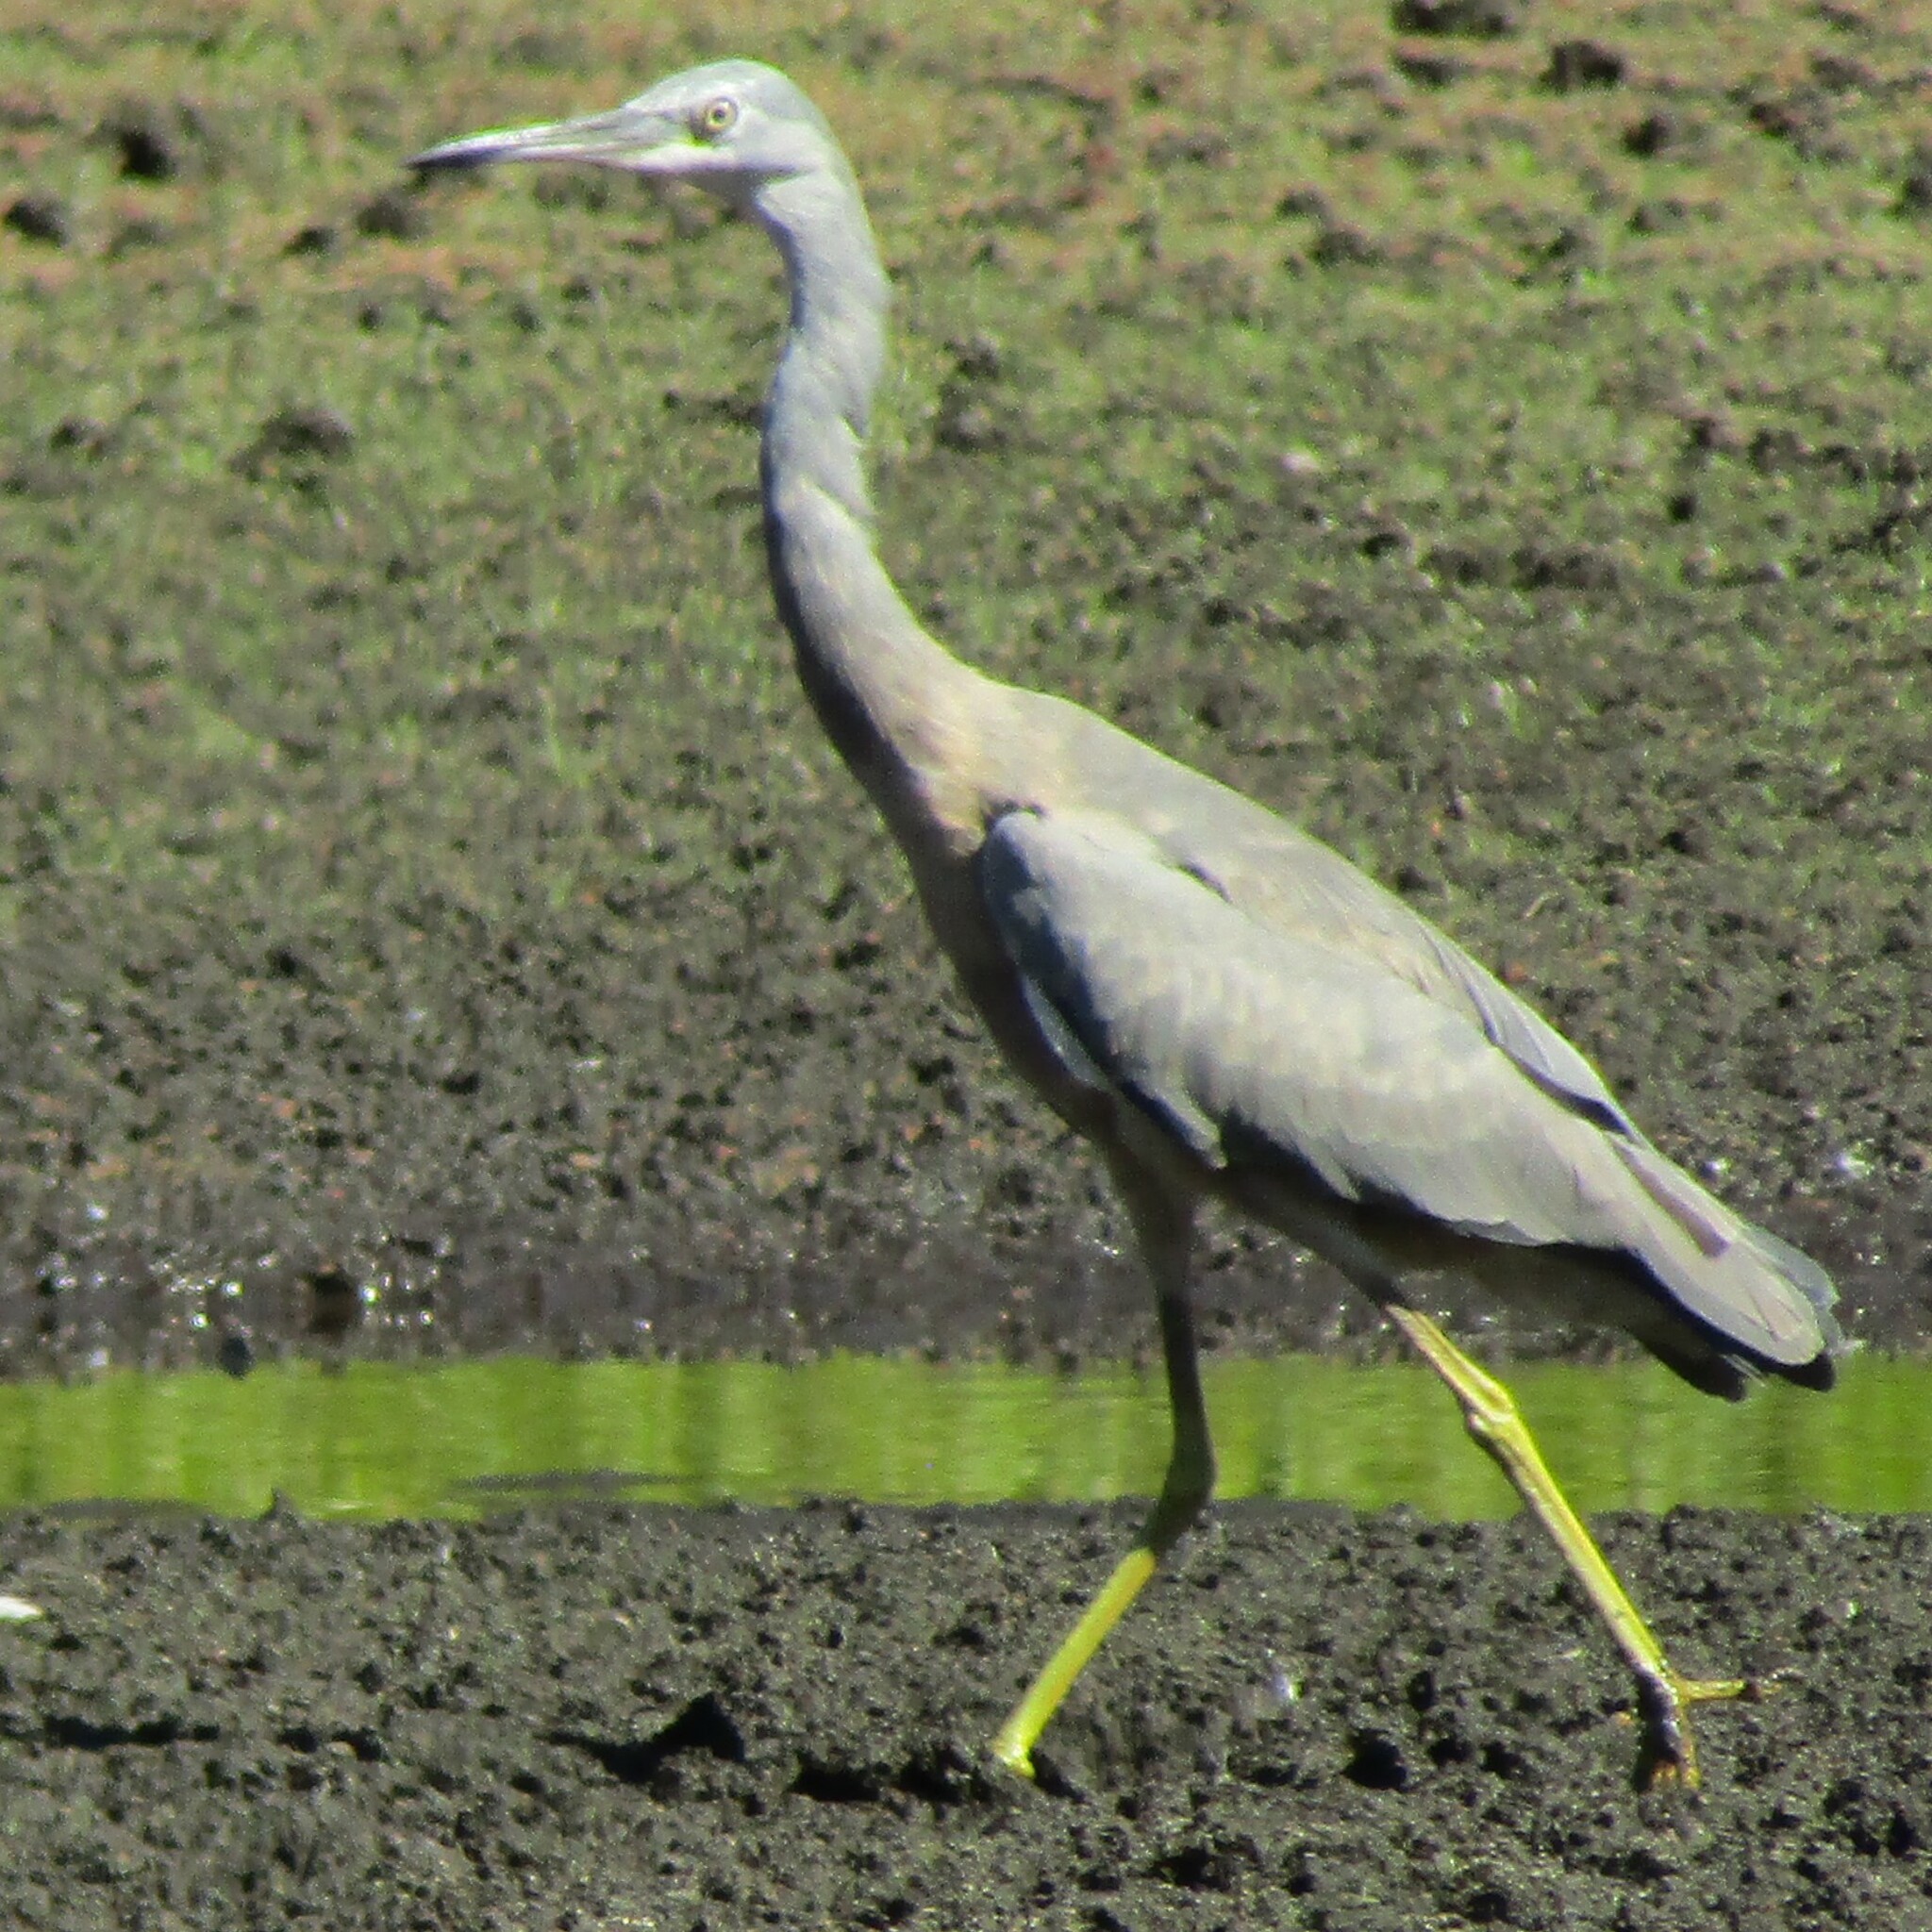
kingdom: Animalia
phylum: Chordata
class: Aves
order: Pelecaniformes
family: Ardeidae
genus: Egretta
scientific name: Egretta novaehollandiae
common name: White-faced heron
